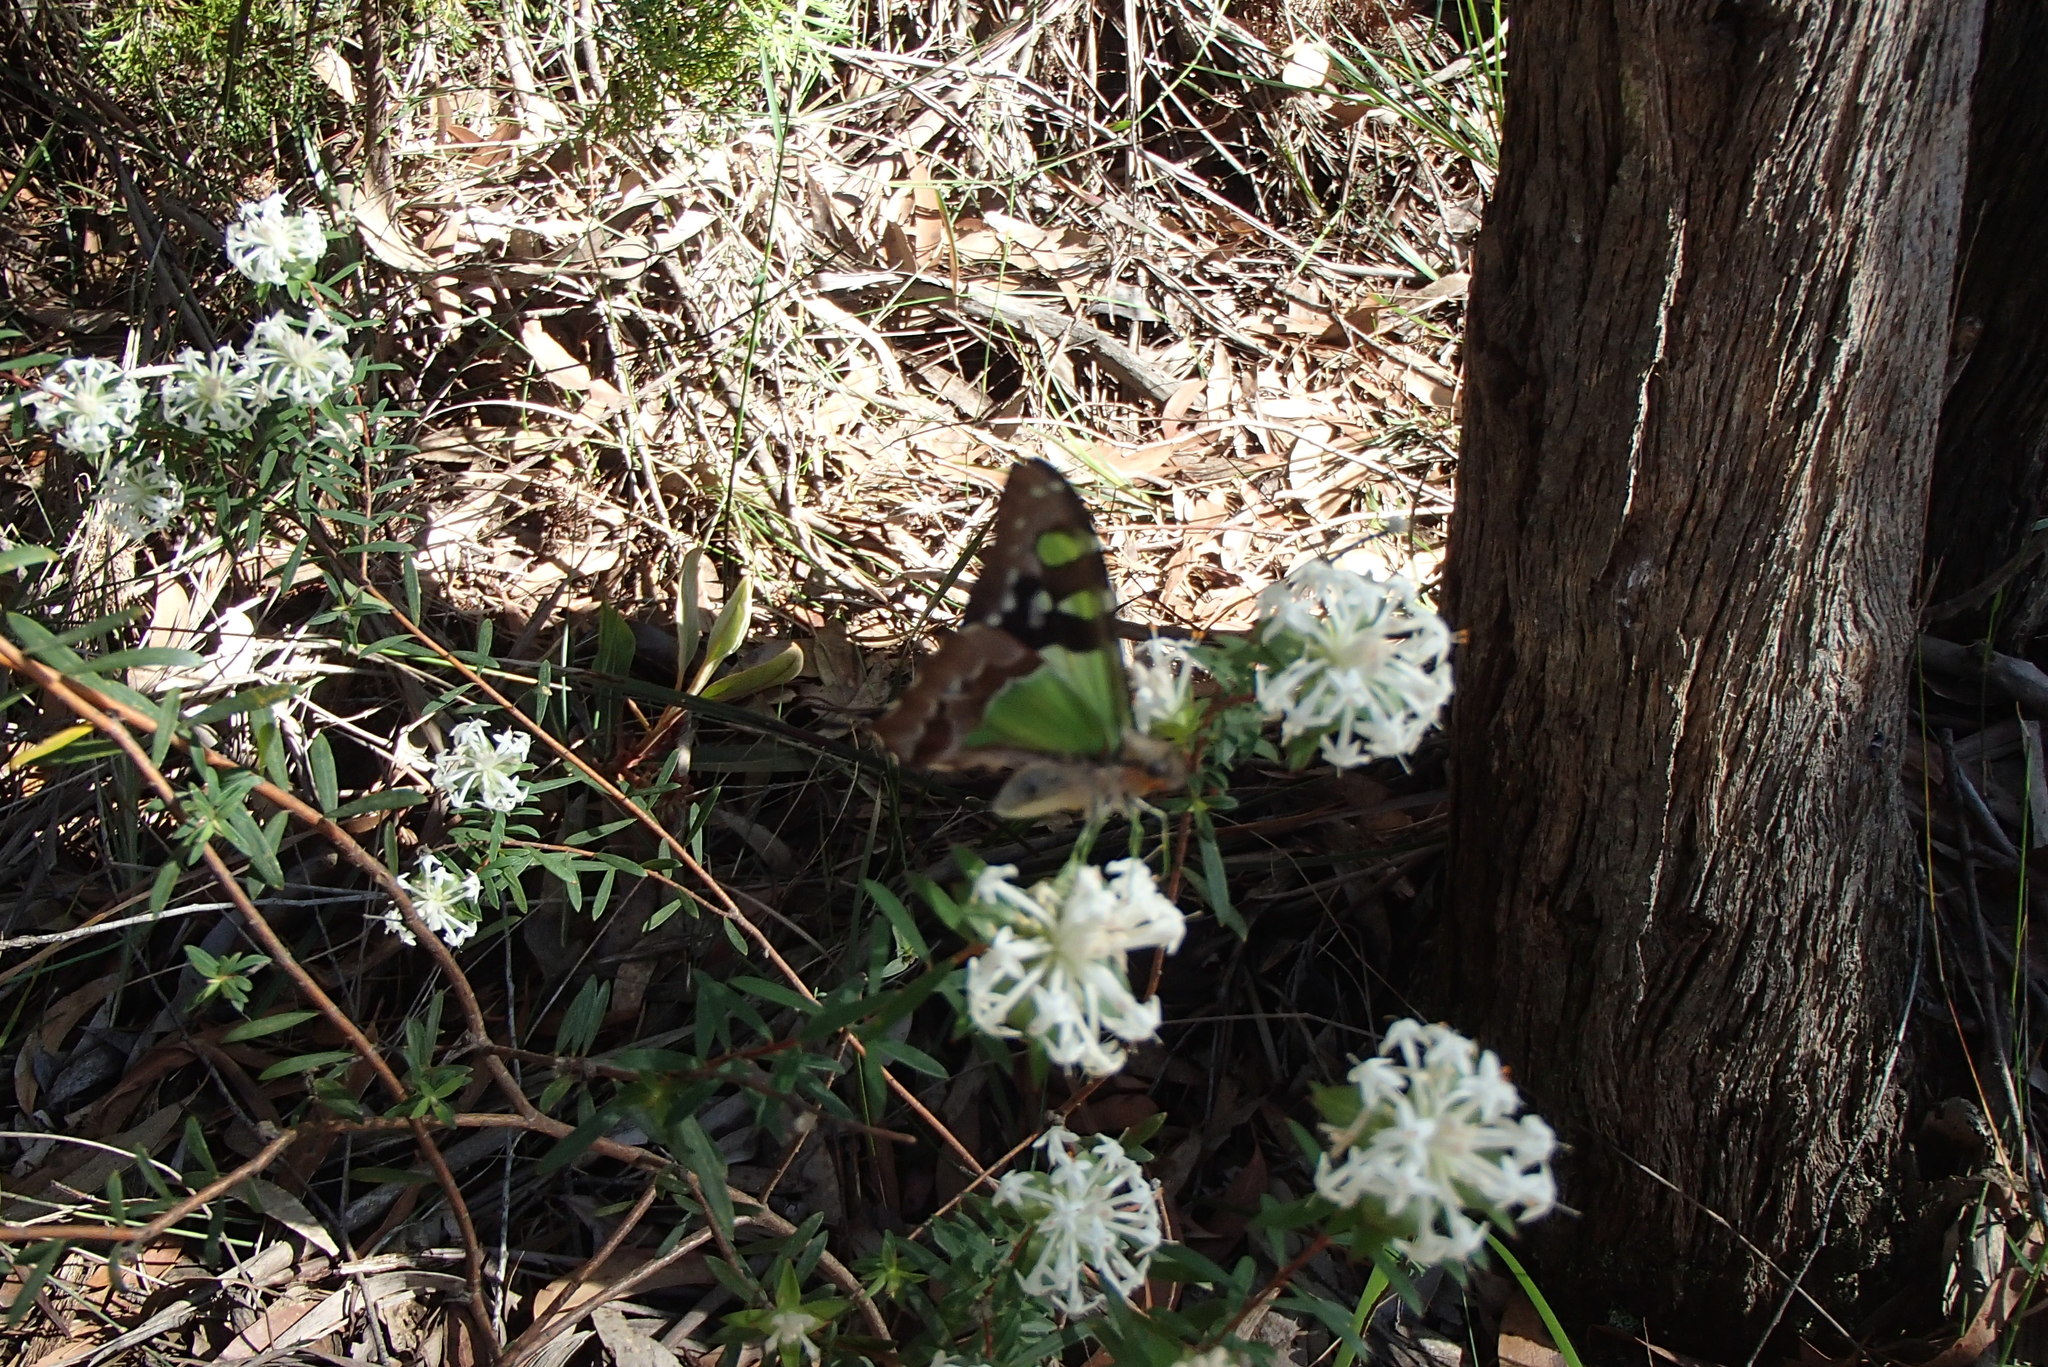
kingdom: Animalia
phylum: Arthropoda
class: Insecta
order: Lepidoptera
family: Papilionidae
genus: Graphium
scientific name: Graphium macleayanus
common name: Macleay's swallowtail
